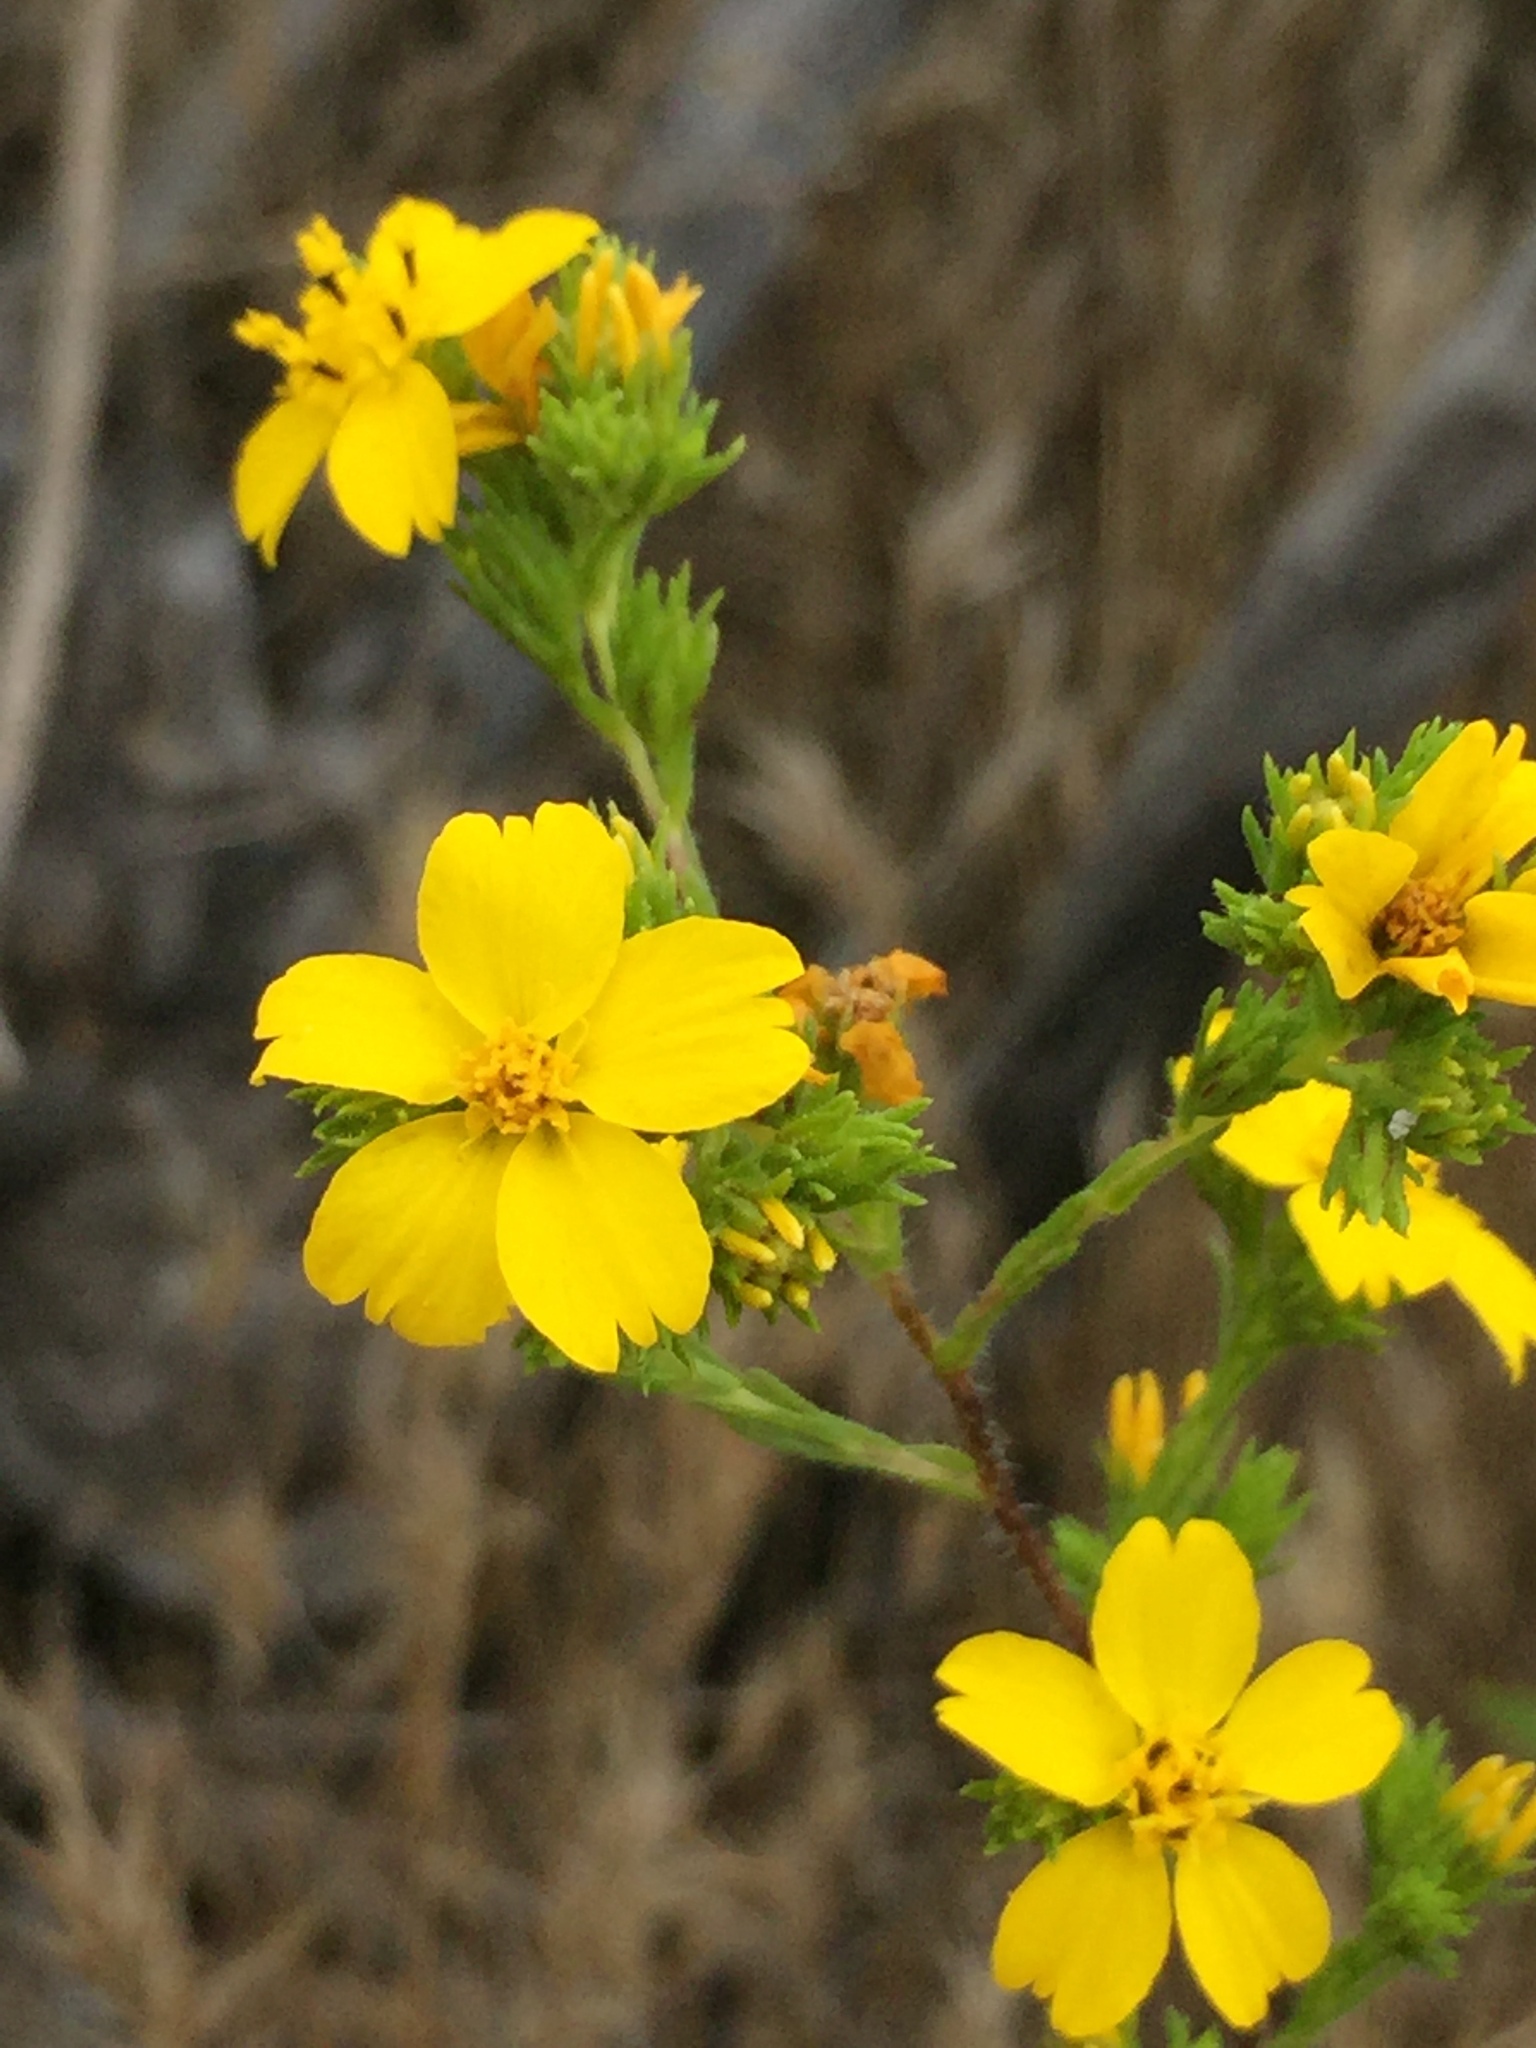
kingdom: Plantae
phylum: Tracheophyta
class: Magnoliopsida
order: Asterales
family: Asteraceae
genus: Deinandra
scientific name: Deinandra fasciculata
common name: Clustered tarweed
